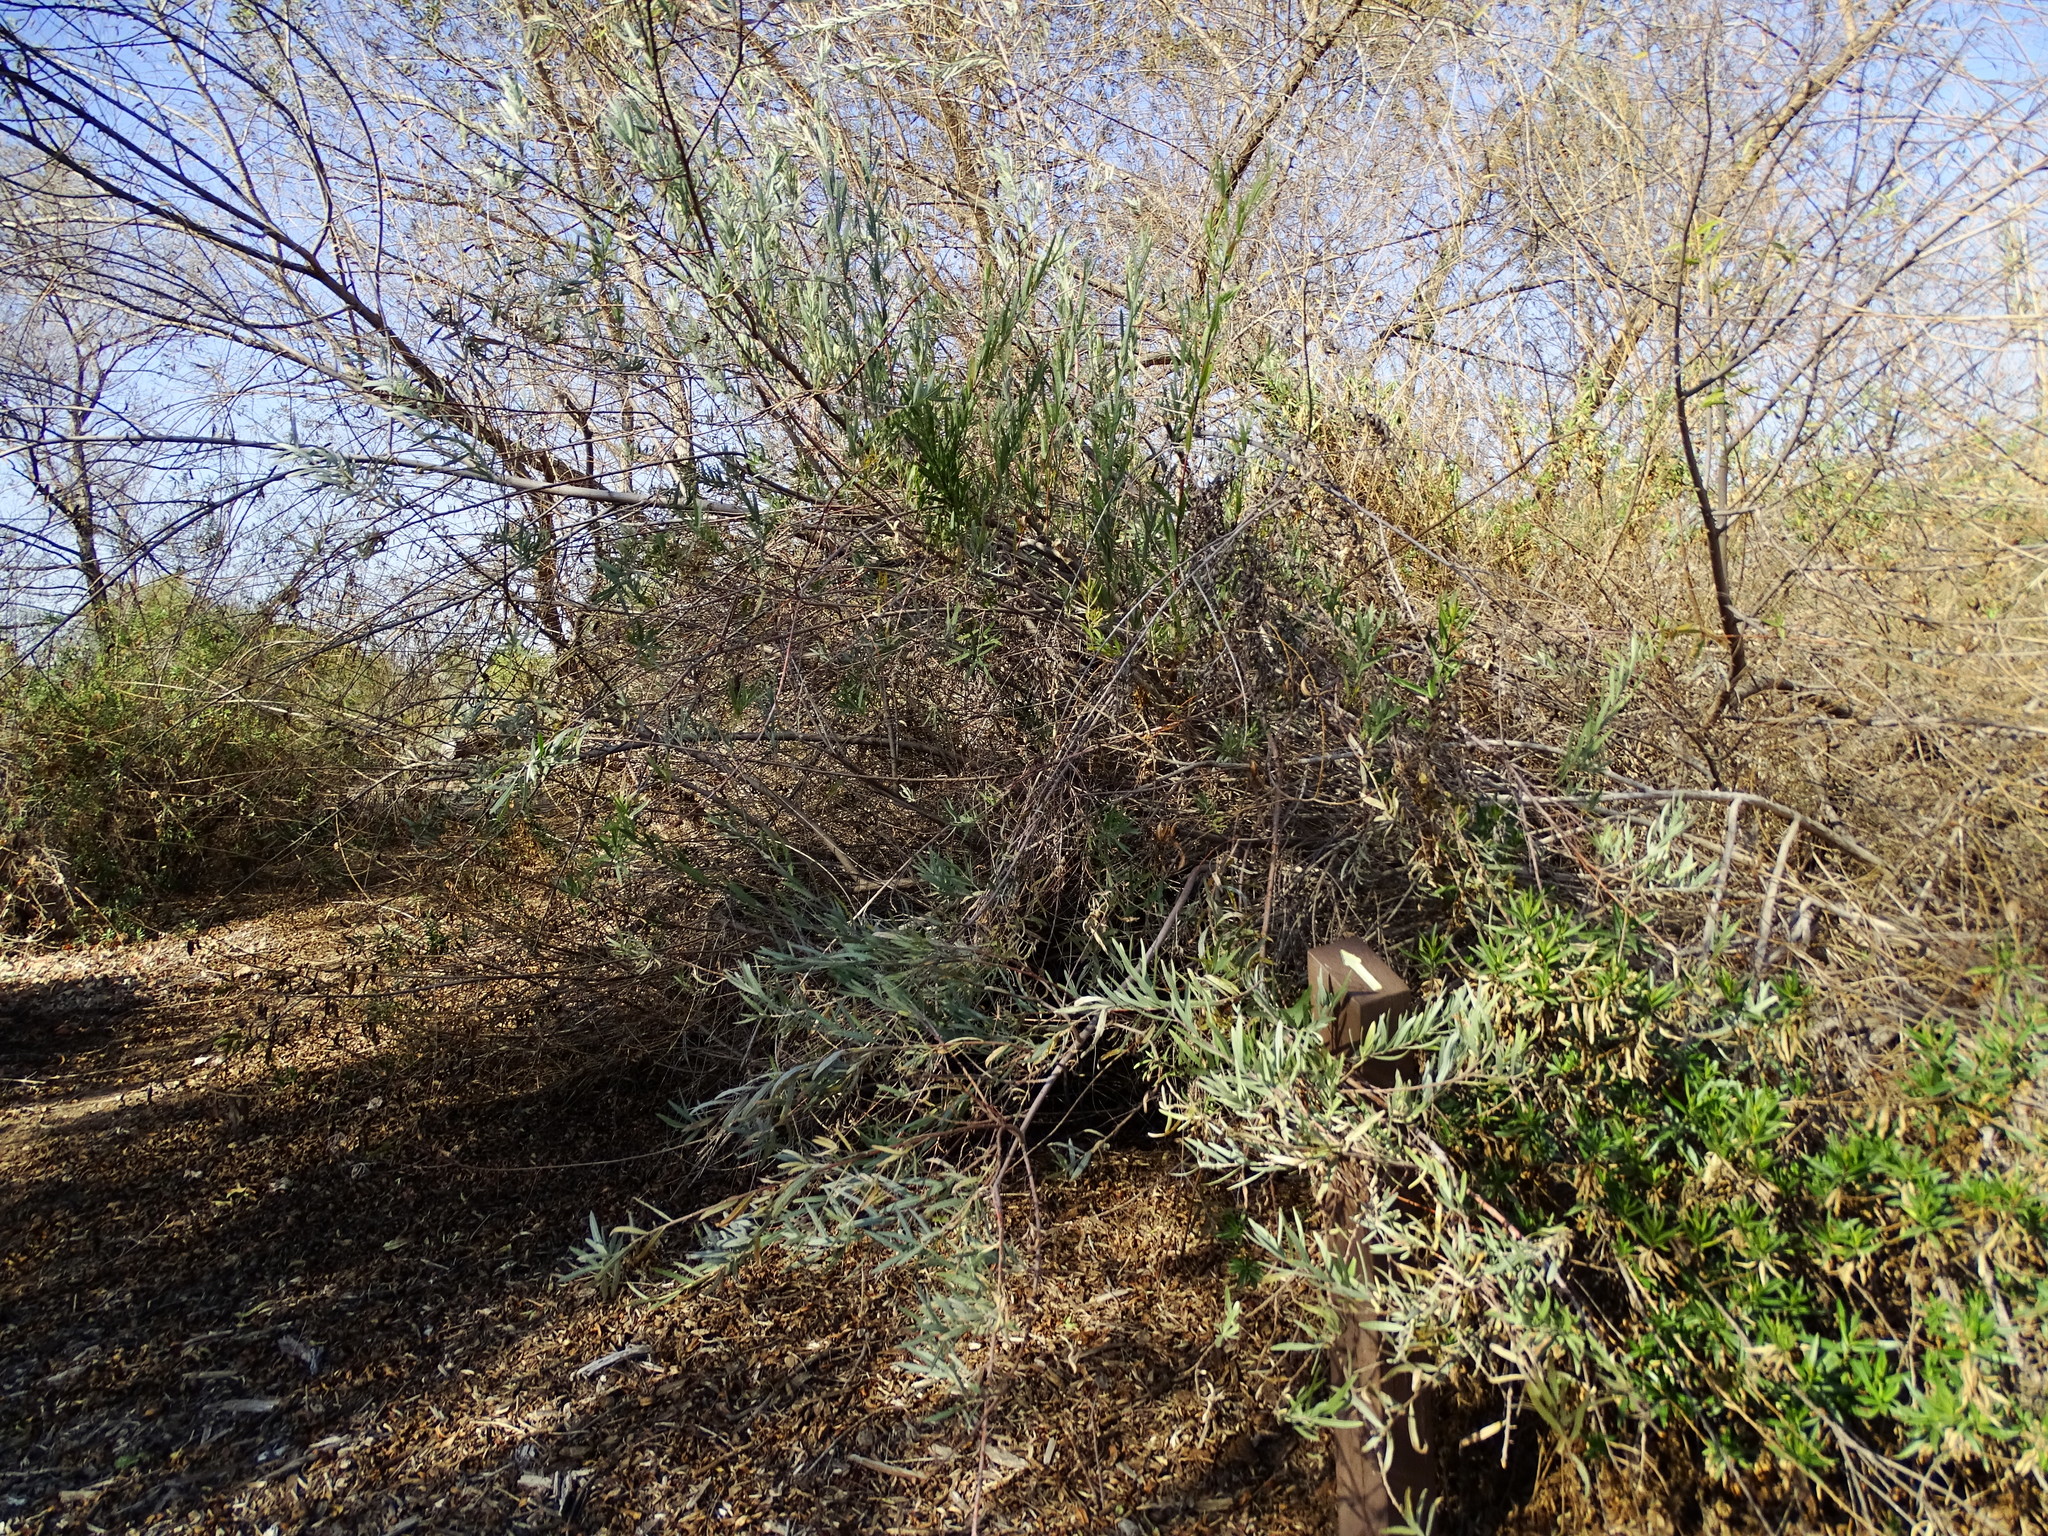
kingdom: Plantae
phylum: Tracheophyta
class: Magnoliopsida
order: Malpighiales
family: Salicaceae
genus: Salix
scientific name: Salix exigua
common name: Coyote willow
